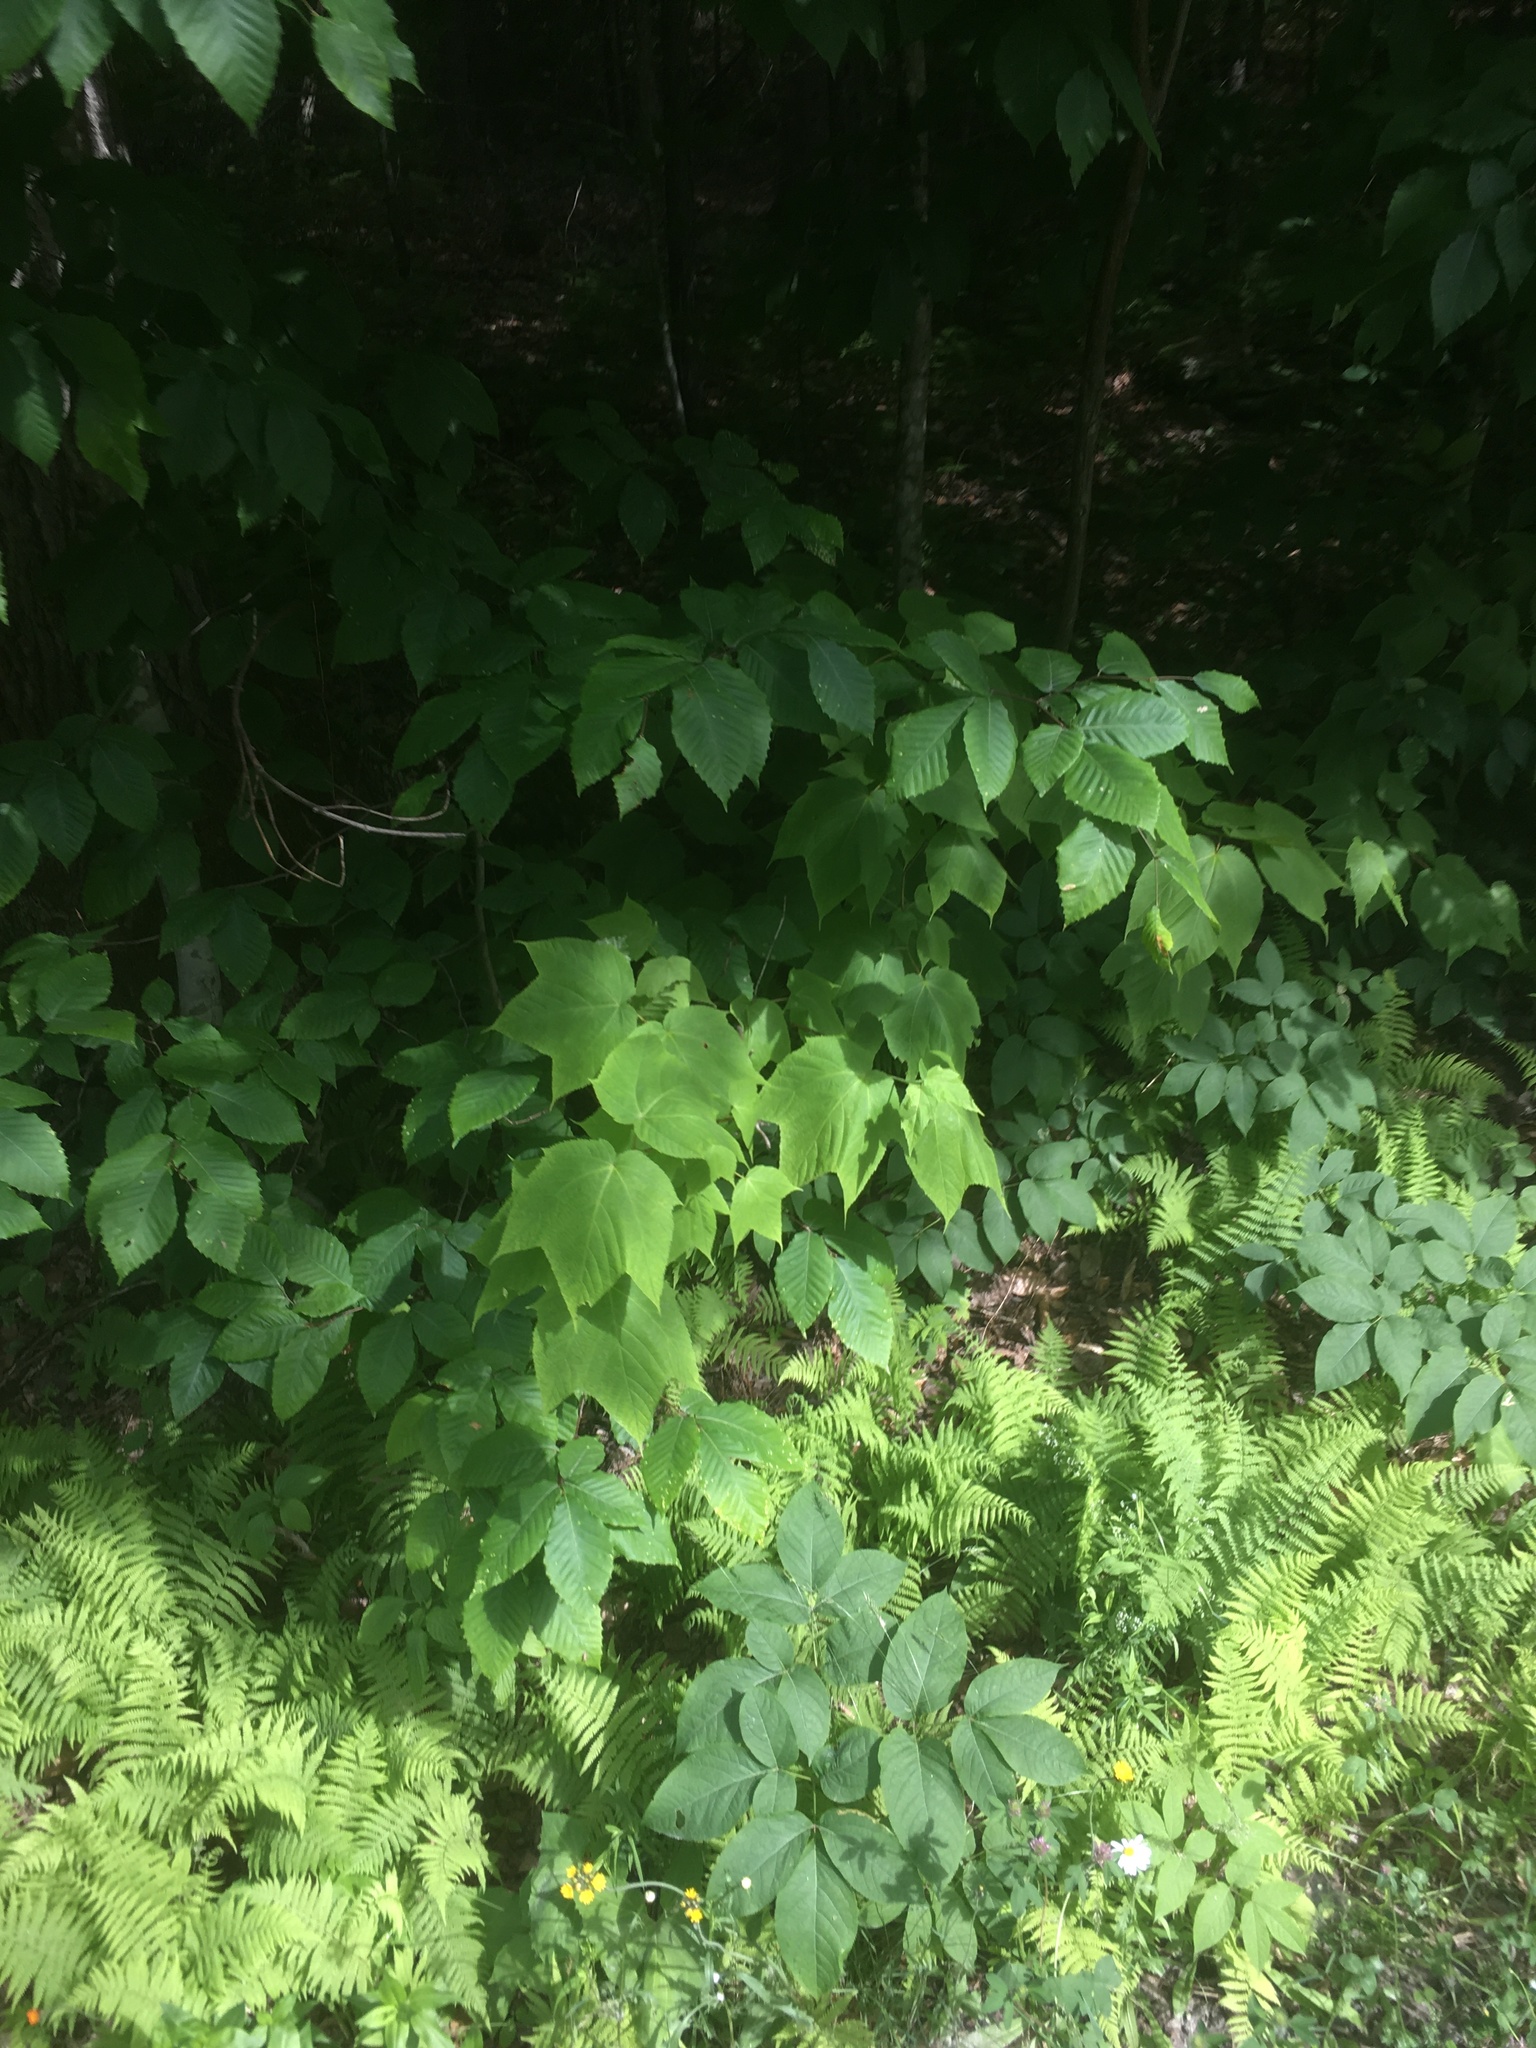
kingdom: Plantae
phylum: Tracheophyta
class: Magnoliopsida
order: Sapindales
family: Sapindaceae
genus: Acer
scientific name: Acer pensylvanicum
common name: Moosewood
